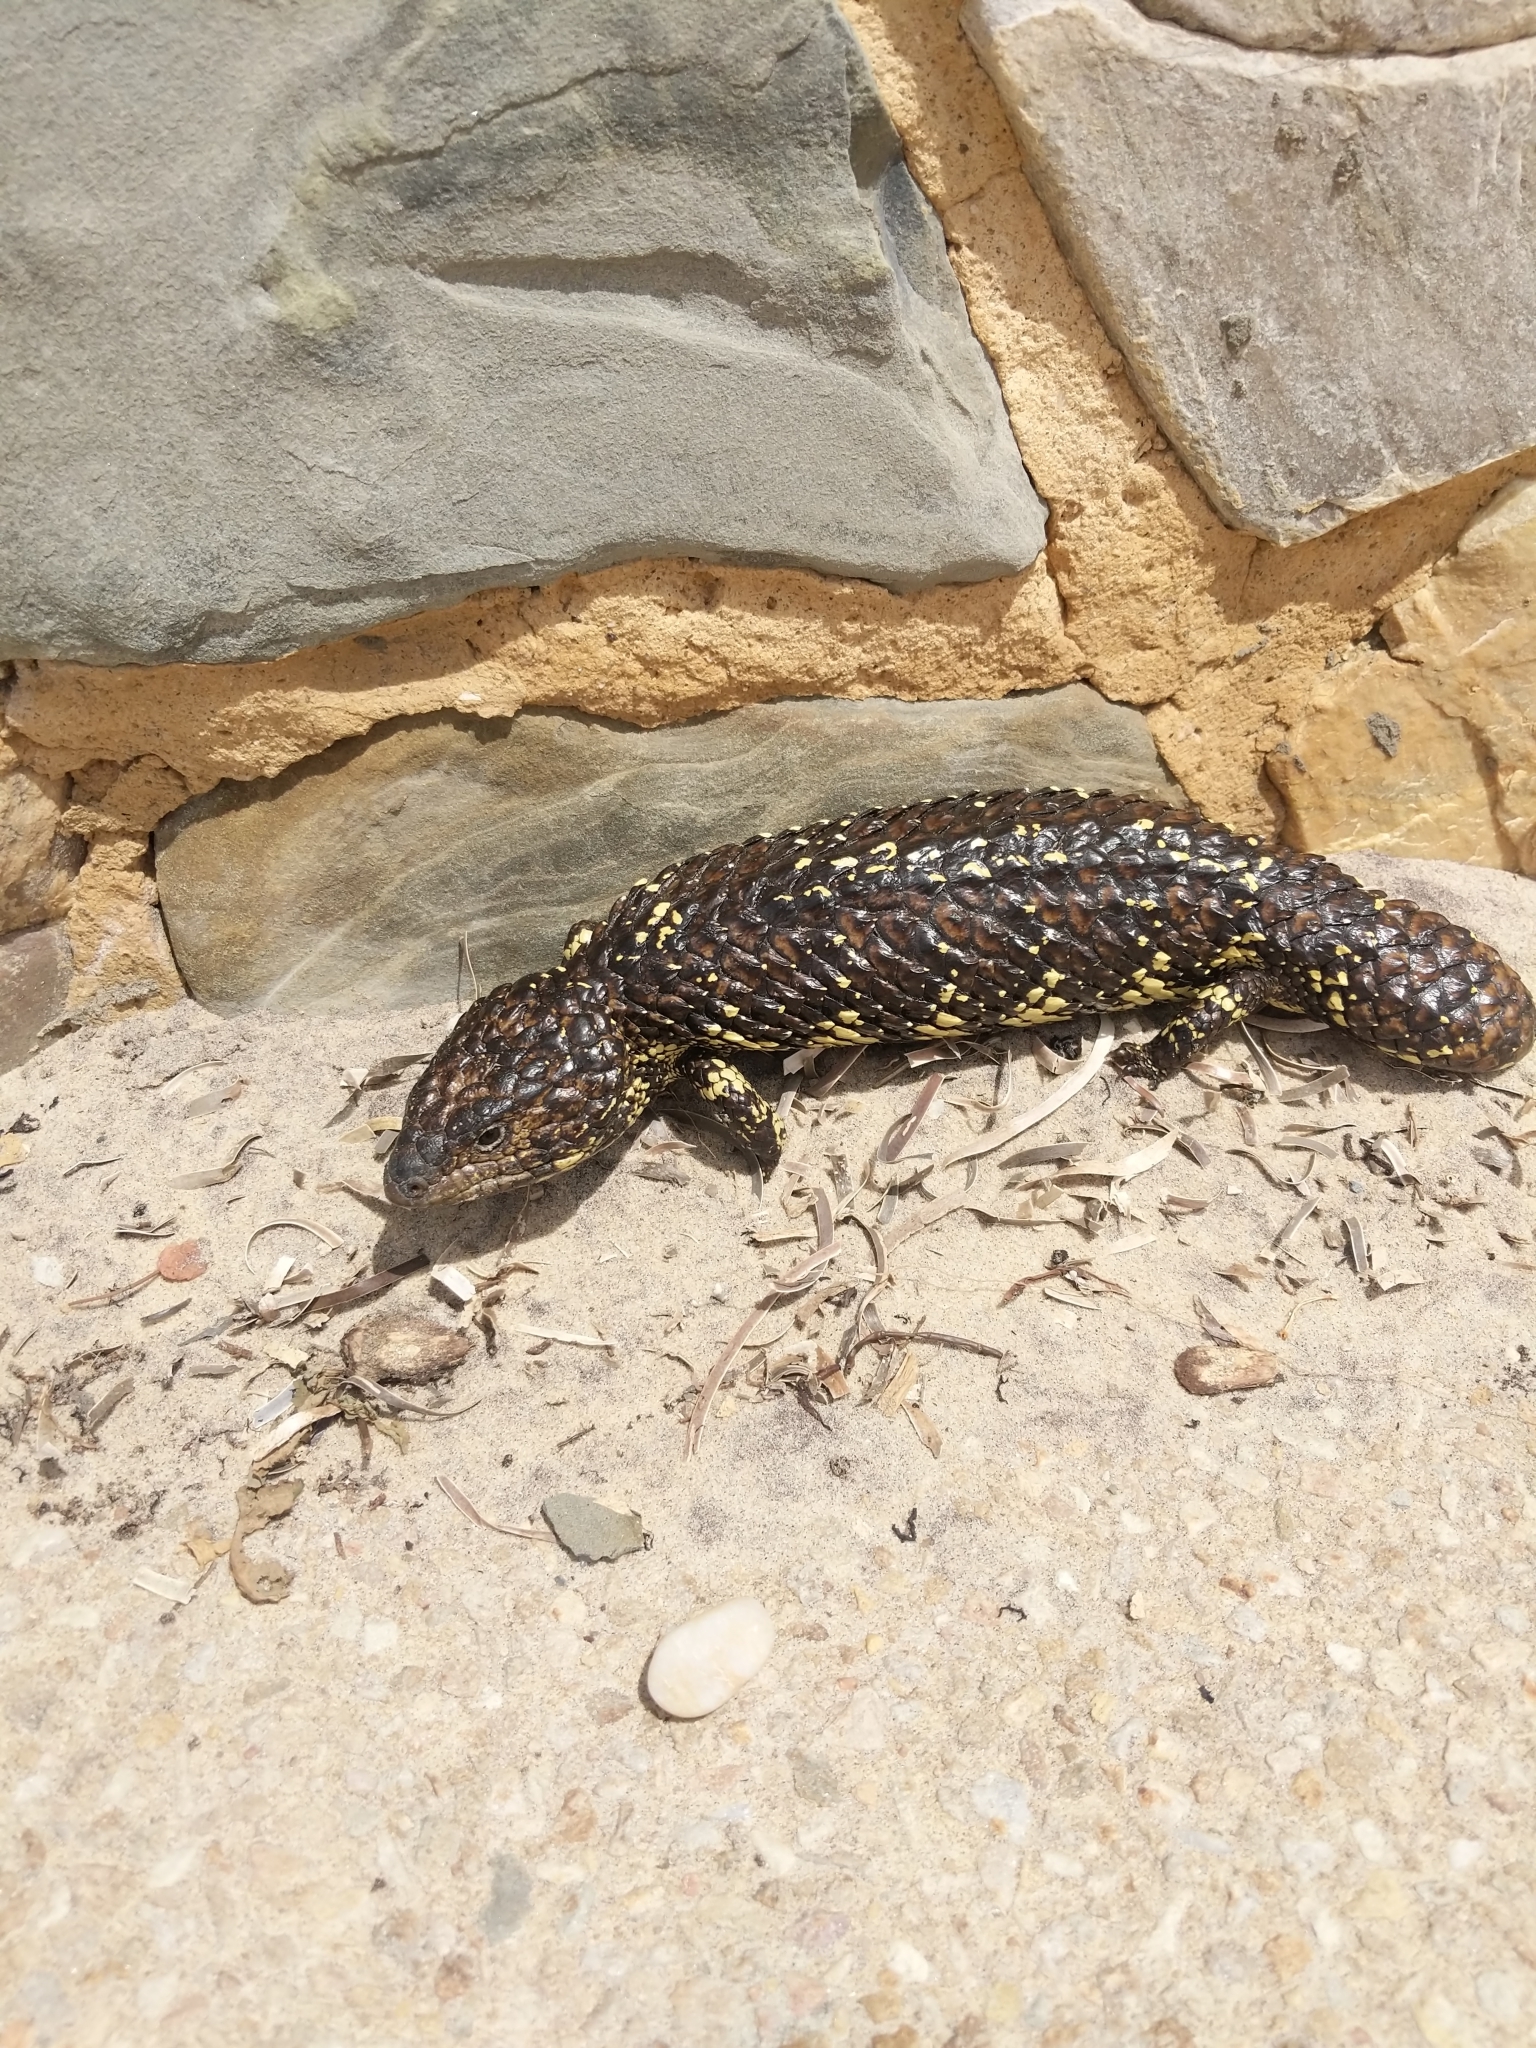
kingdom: Animalia
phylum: Chordata
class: Squamata
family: Scincidae
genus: Tiliqua
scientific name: Tiliqua rugosa
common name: Pinecone lizard
